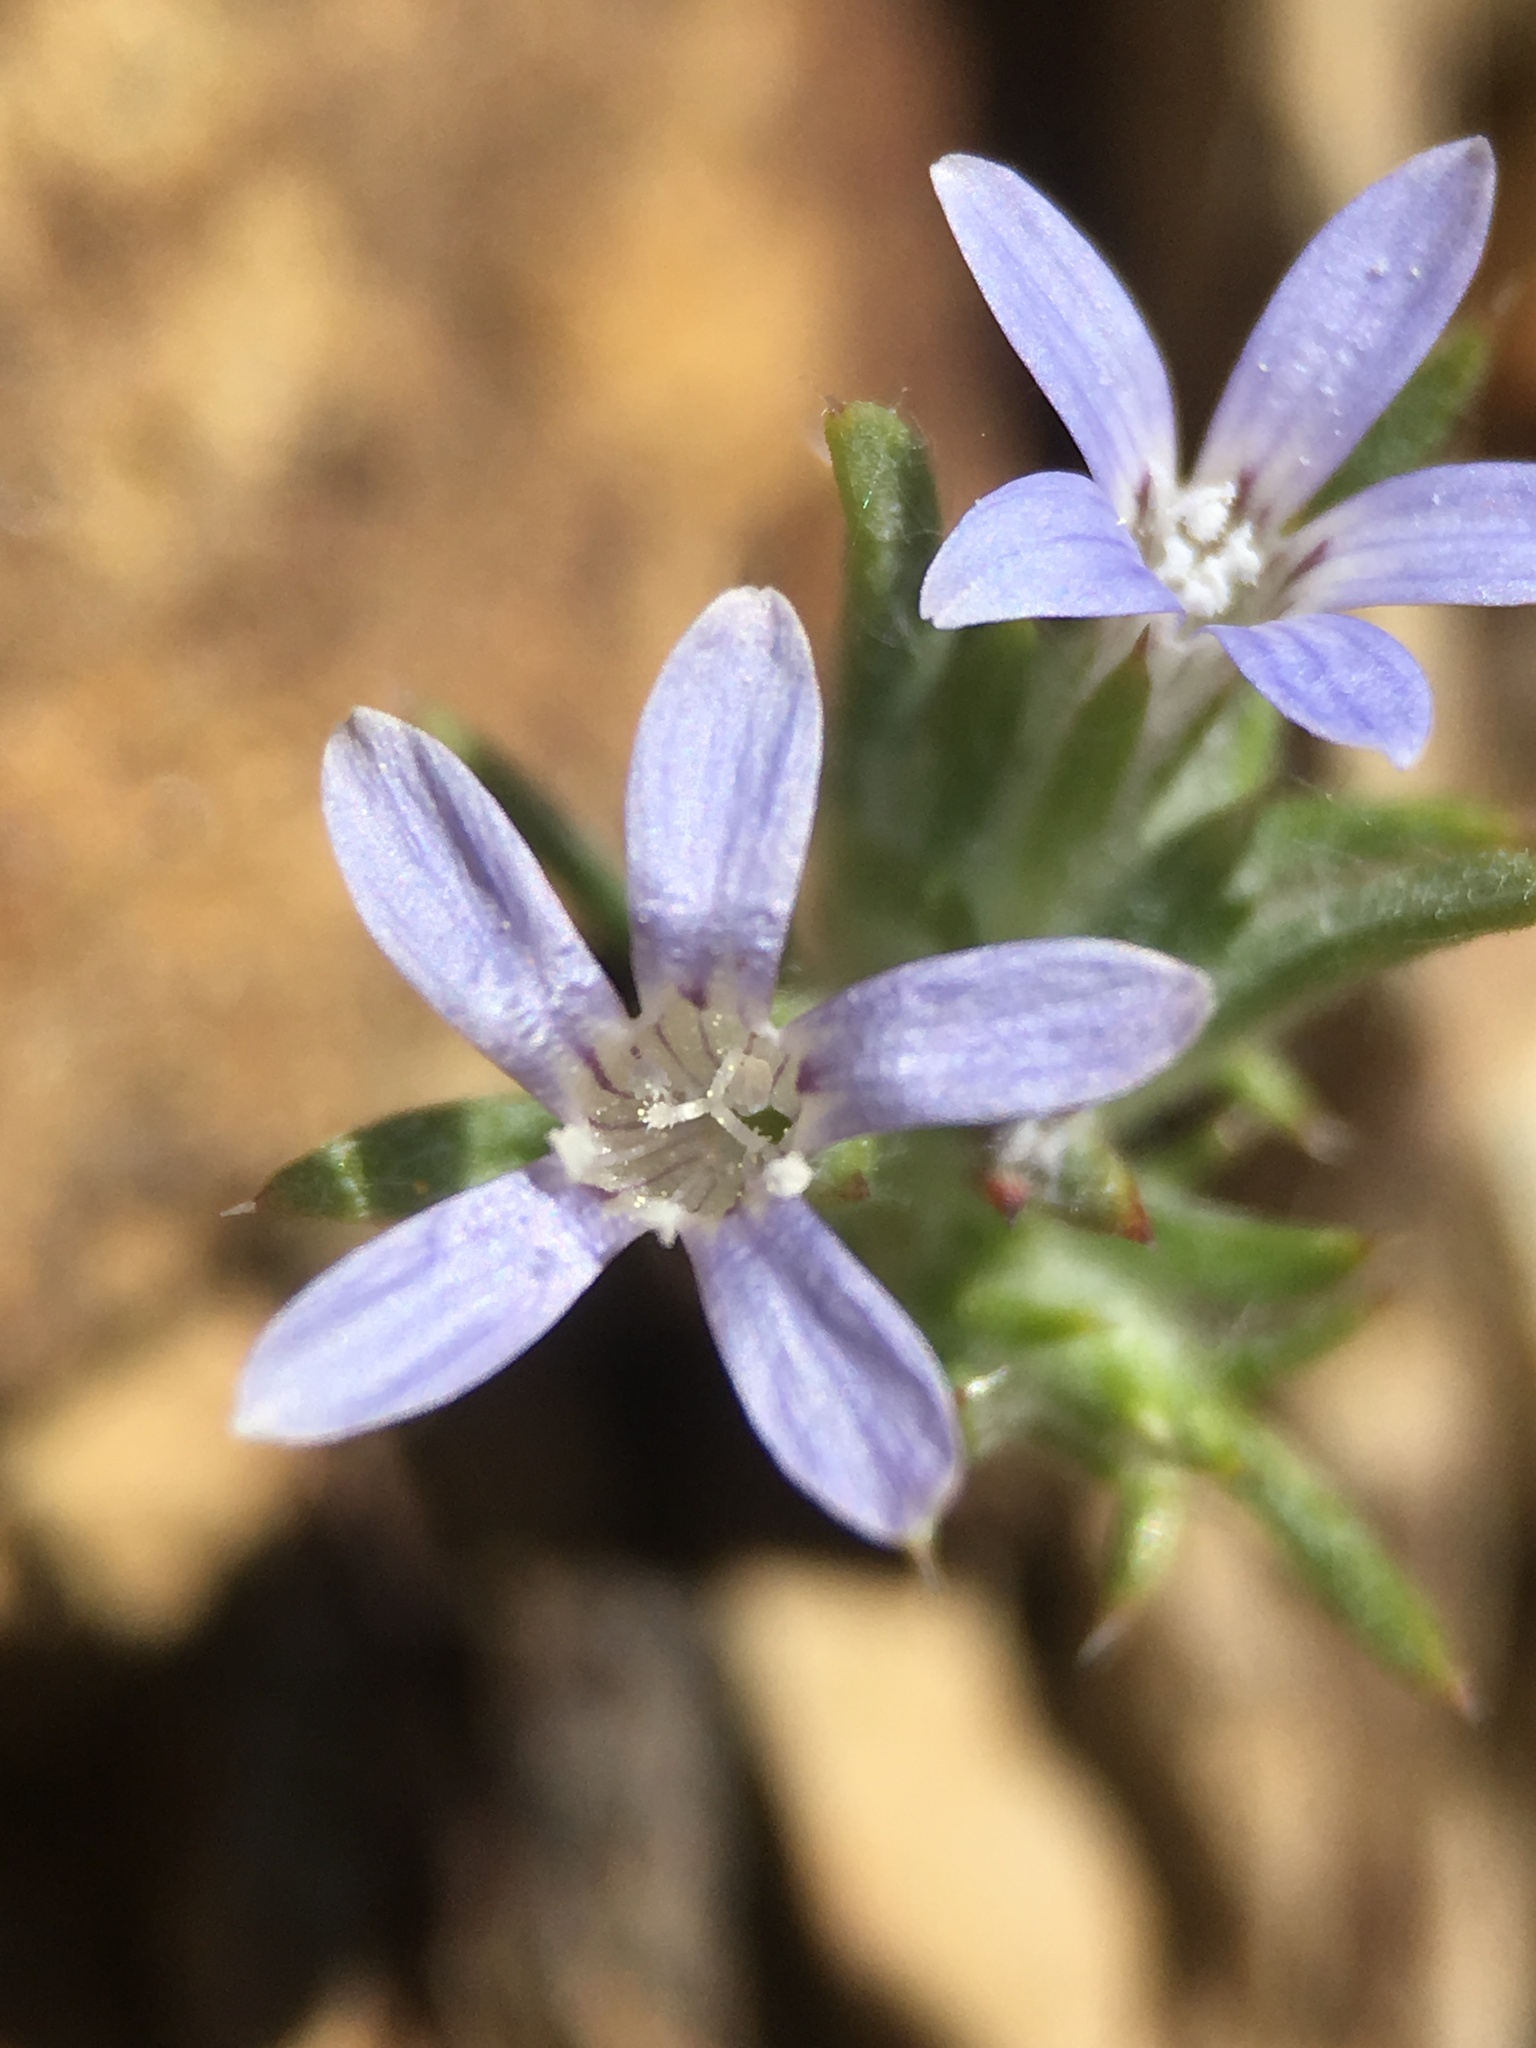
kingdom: Plantae
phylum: Tracheophyta
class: Magnoliopsida
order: Ericales
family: Polemoniaceae
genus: Eriastrum
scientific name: Eriastrum signatum
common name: Great basin woollystar
